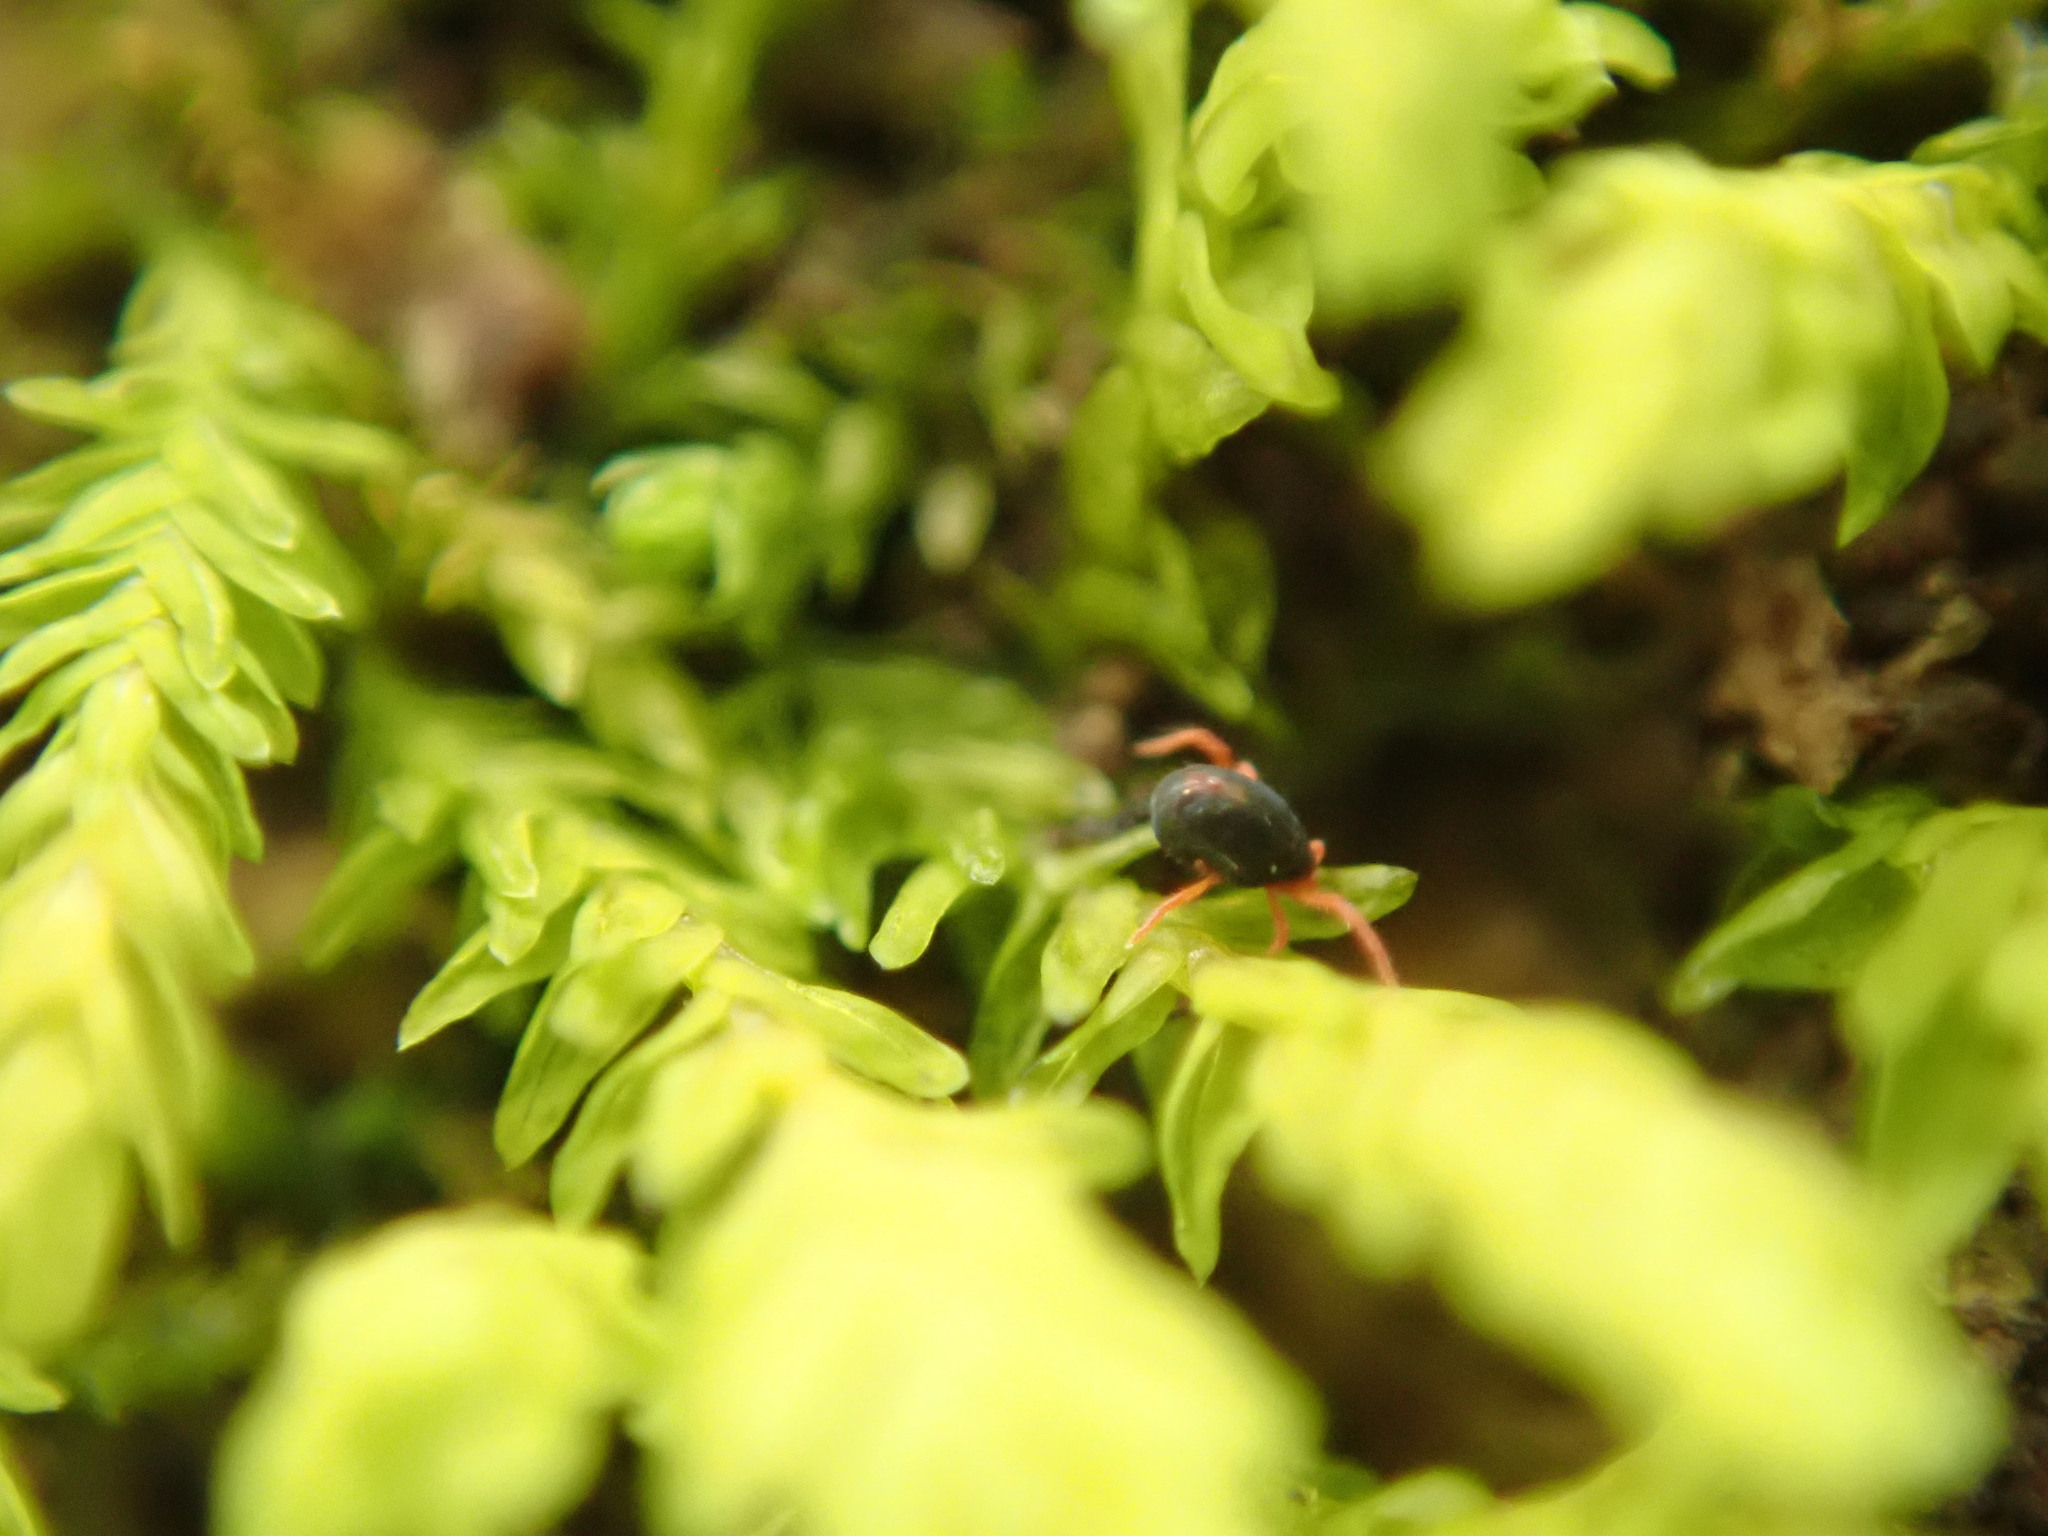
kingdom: Animalia
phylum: Arthropoda
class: Arachnida
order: Trombidiformes
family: Penthaleidae
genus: Penthaleus
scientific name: Penthaleus major
